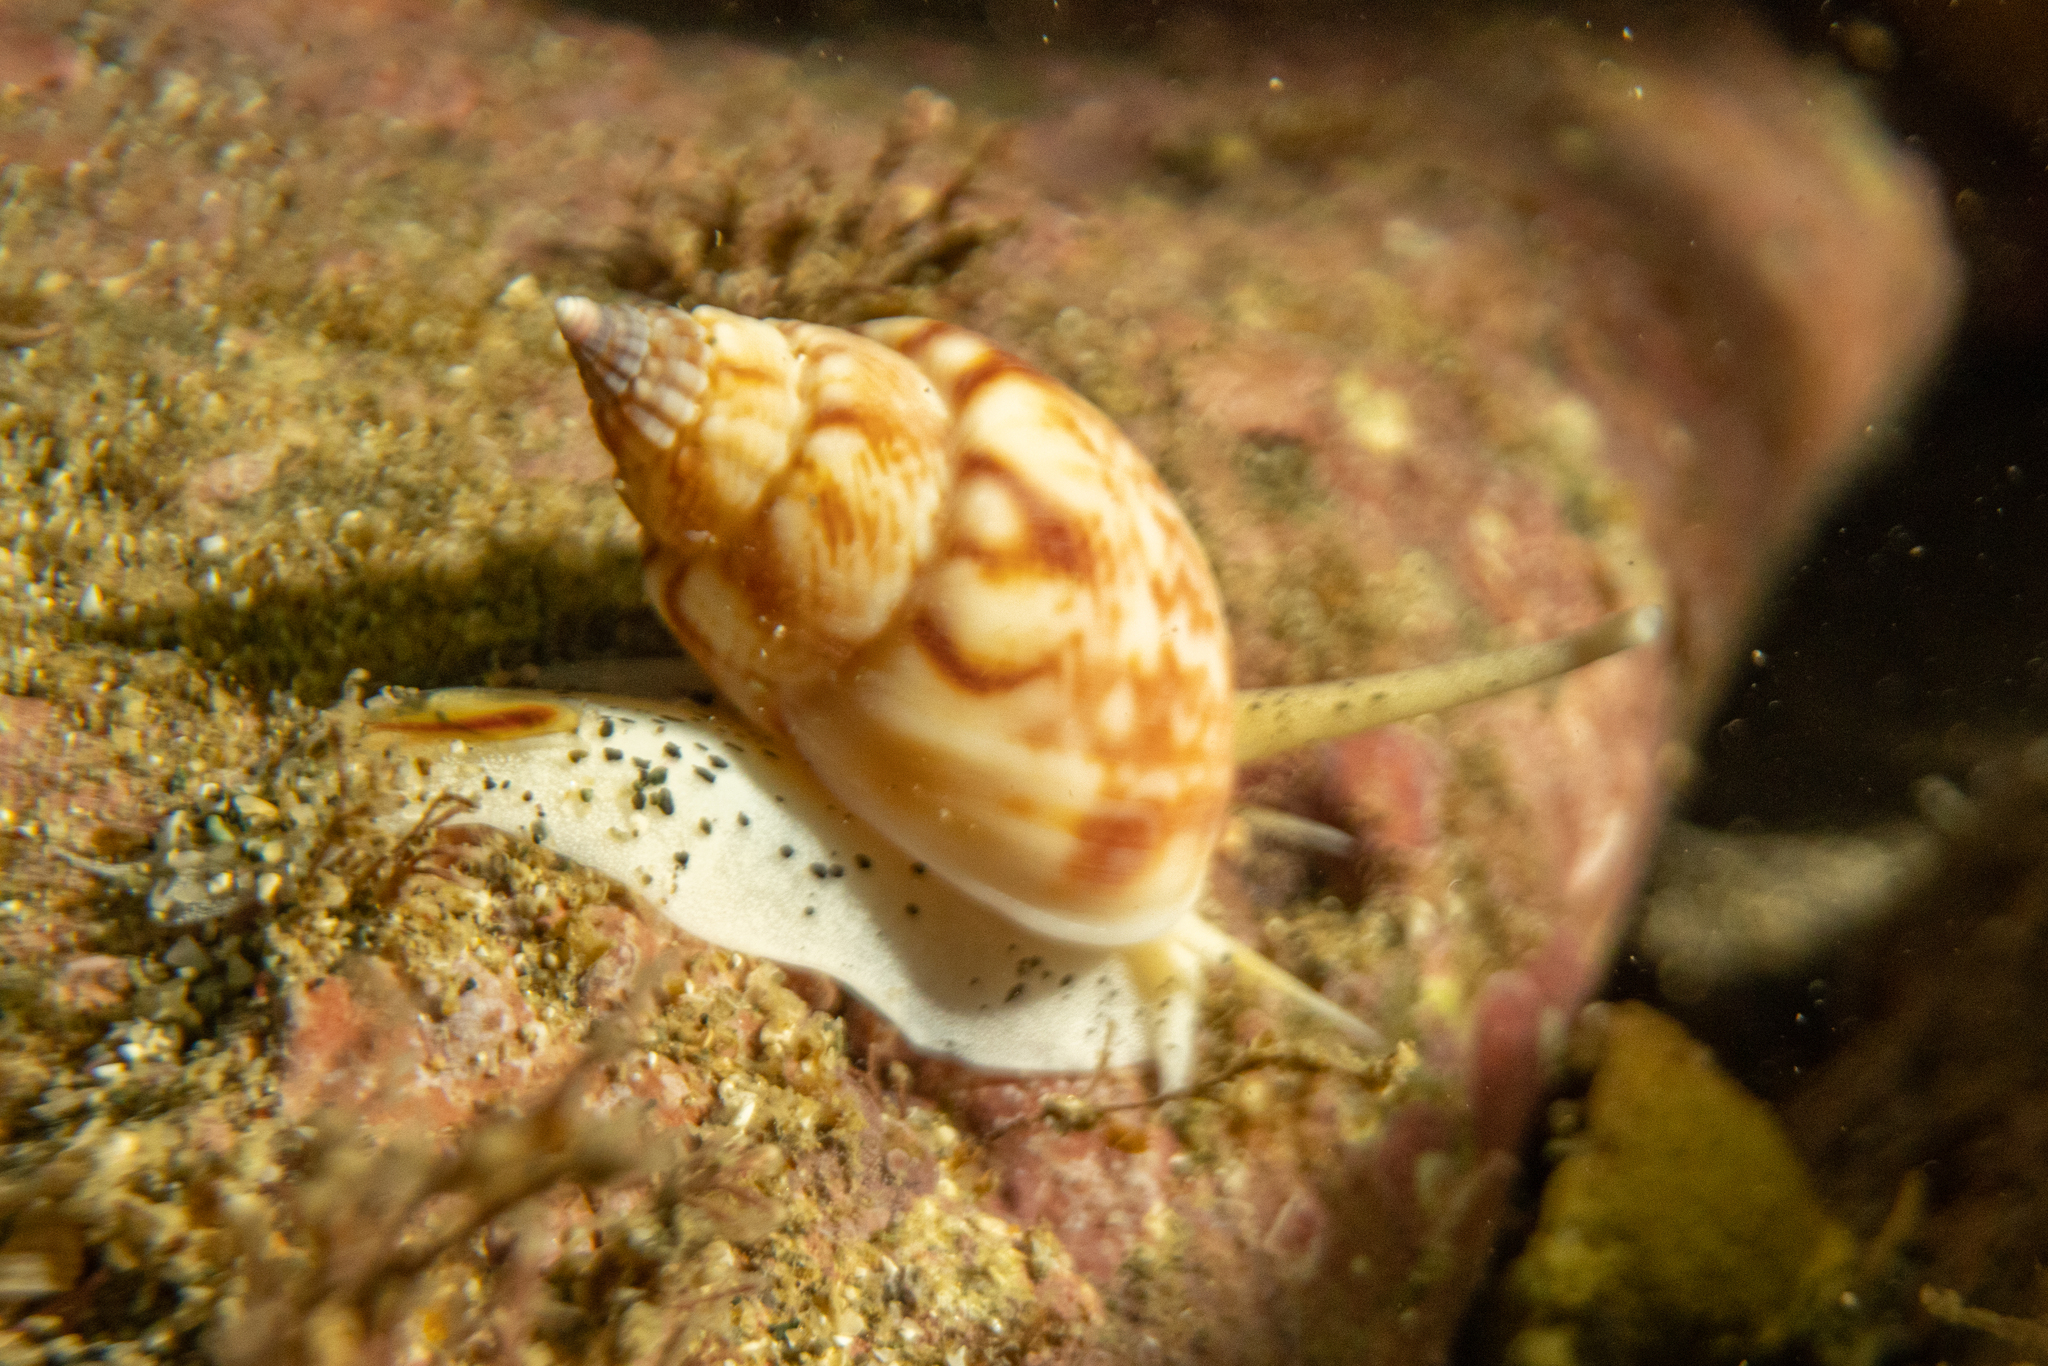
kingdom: Animalia
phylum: Mollusca
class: Gastropoda
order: Neogastropoda
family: Nassariidae
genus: Nassarius
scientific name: Nassarius spiratus
